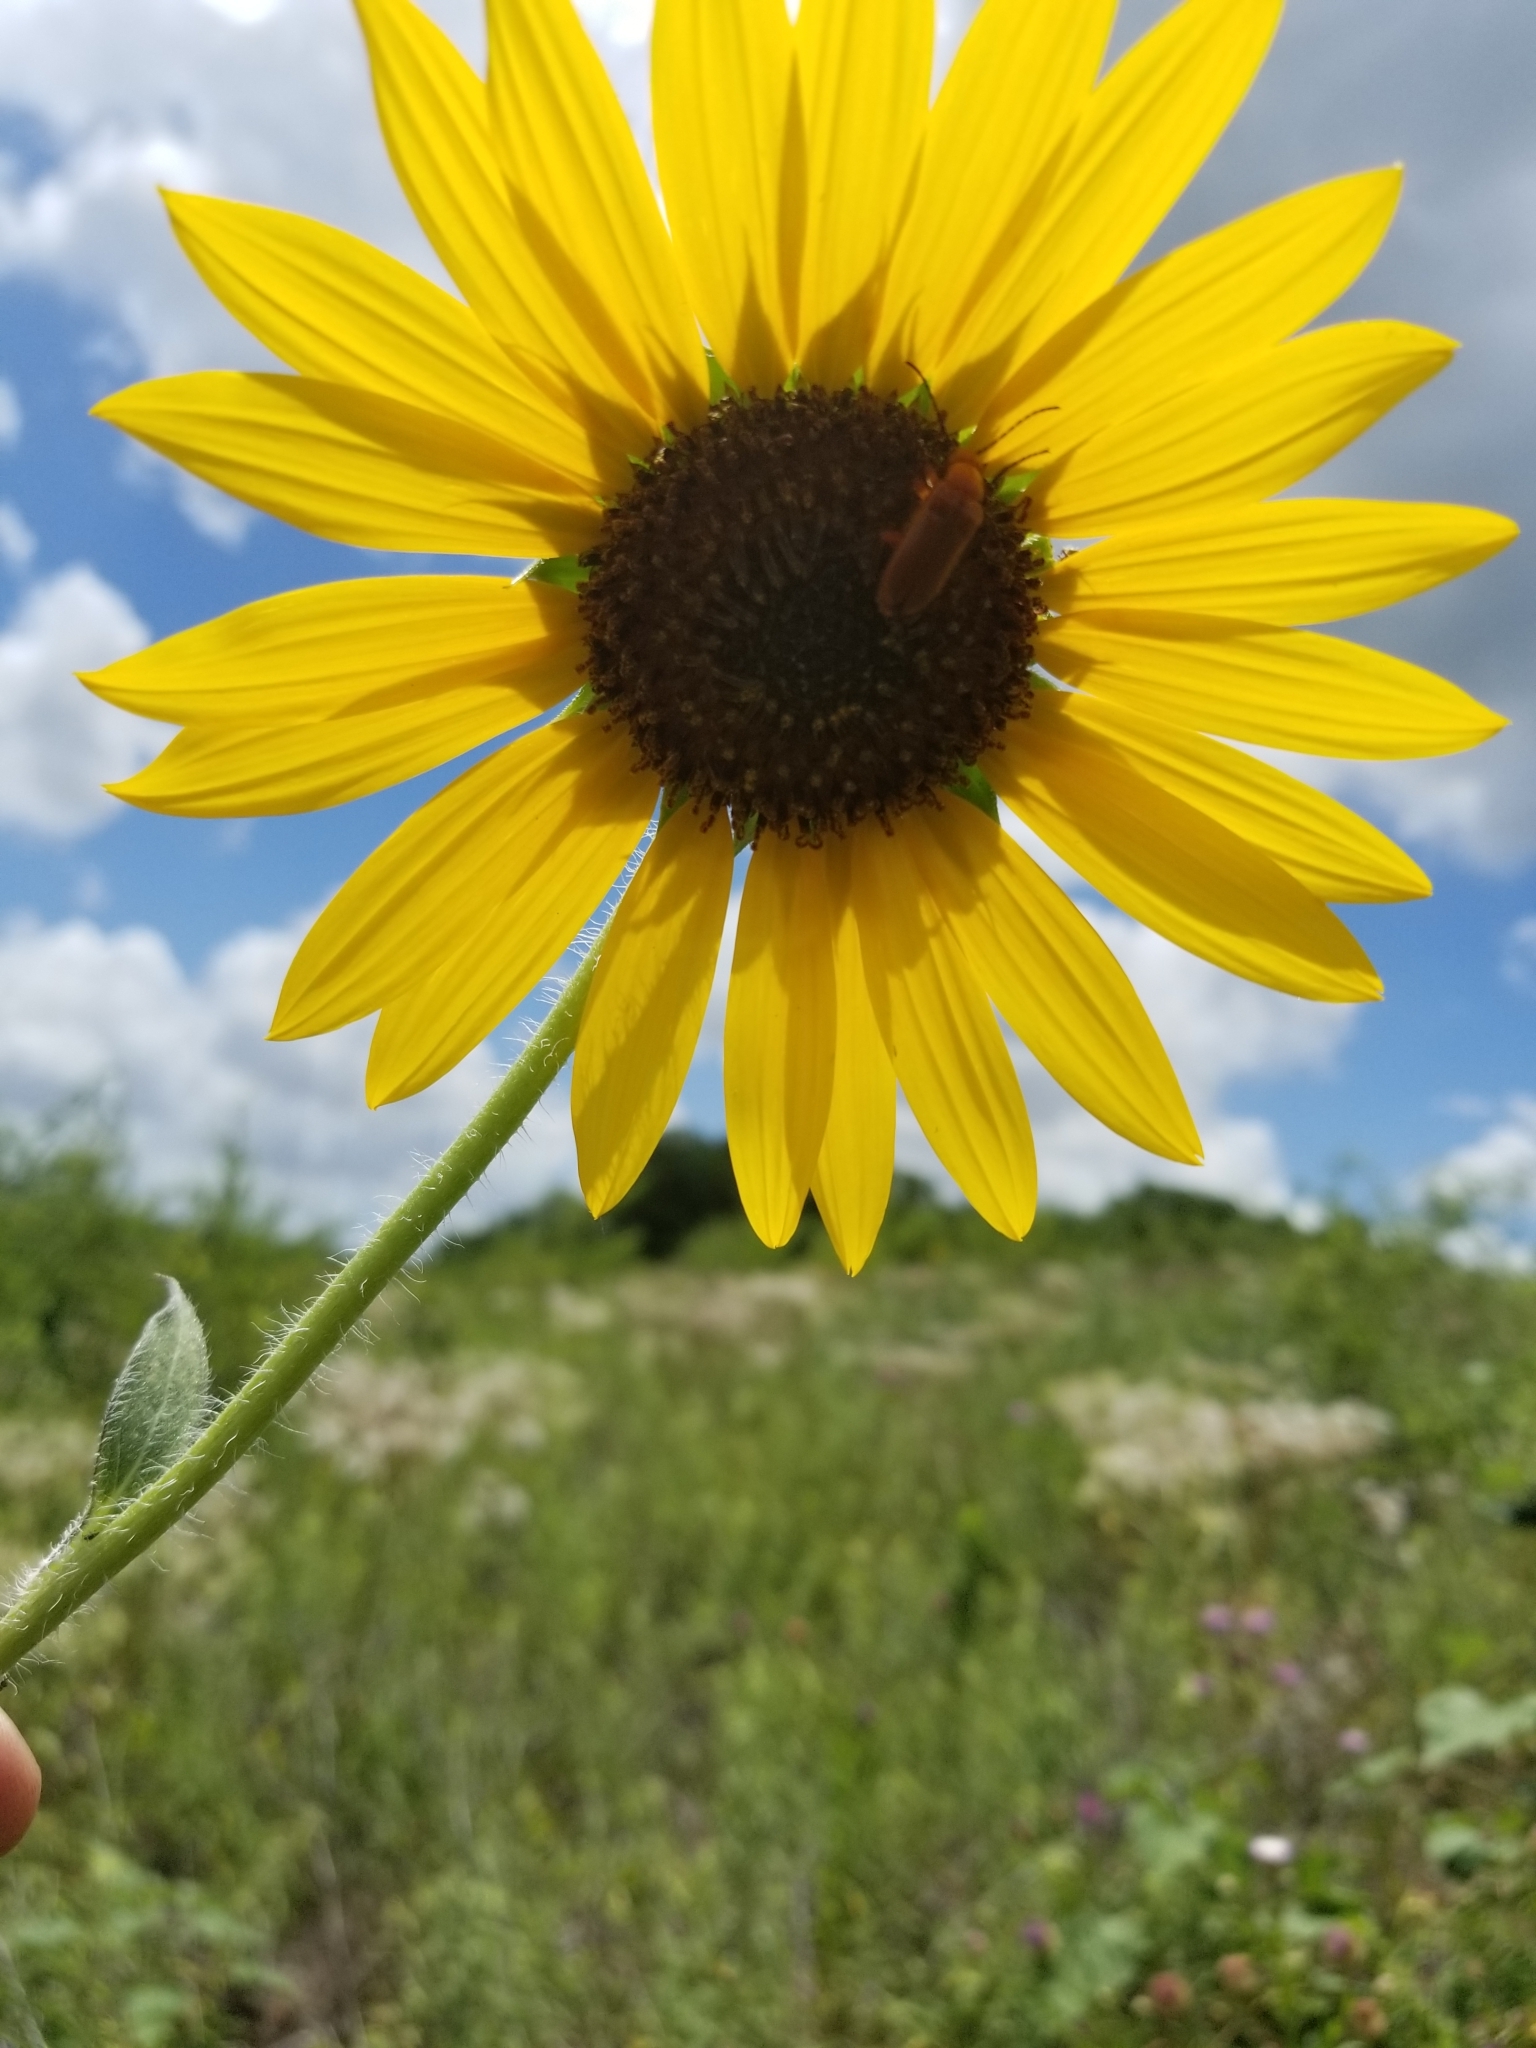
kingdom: Plantae
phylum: Tracheophyta
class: Magnoliopsida
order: Asterales
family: Asteraceae
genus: Helianthus
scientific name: Helianthus annuus
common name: Sunflower
